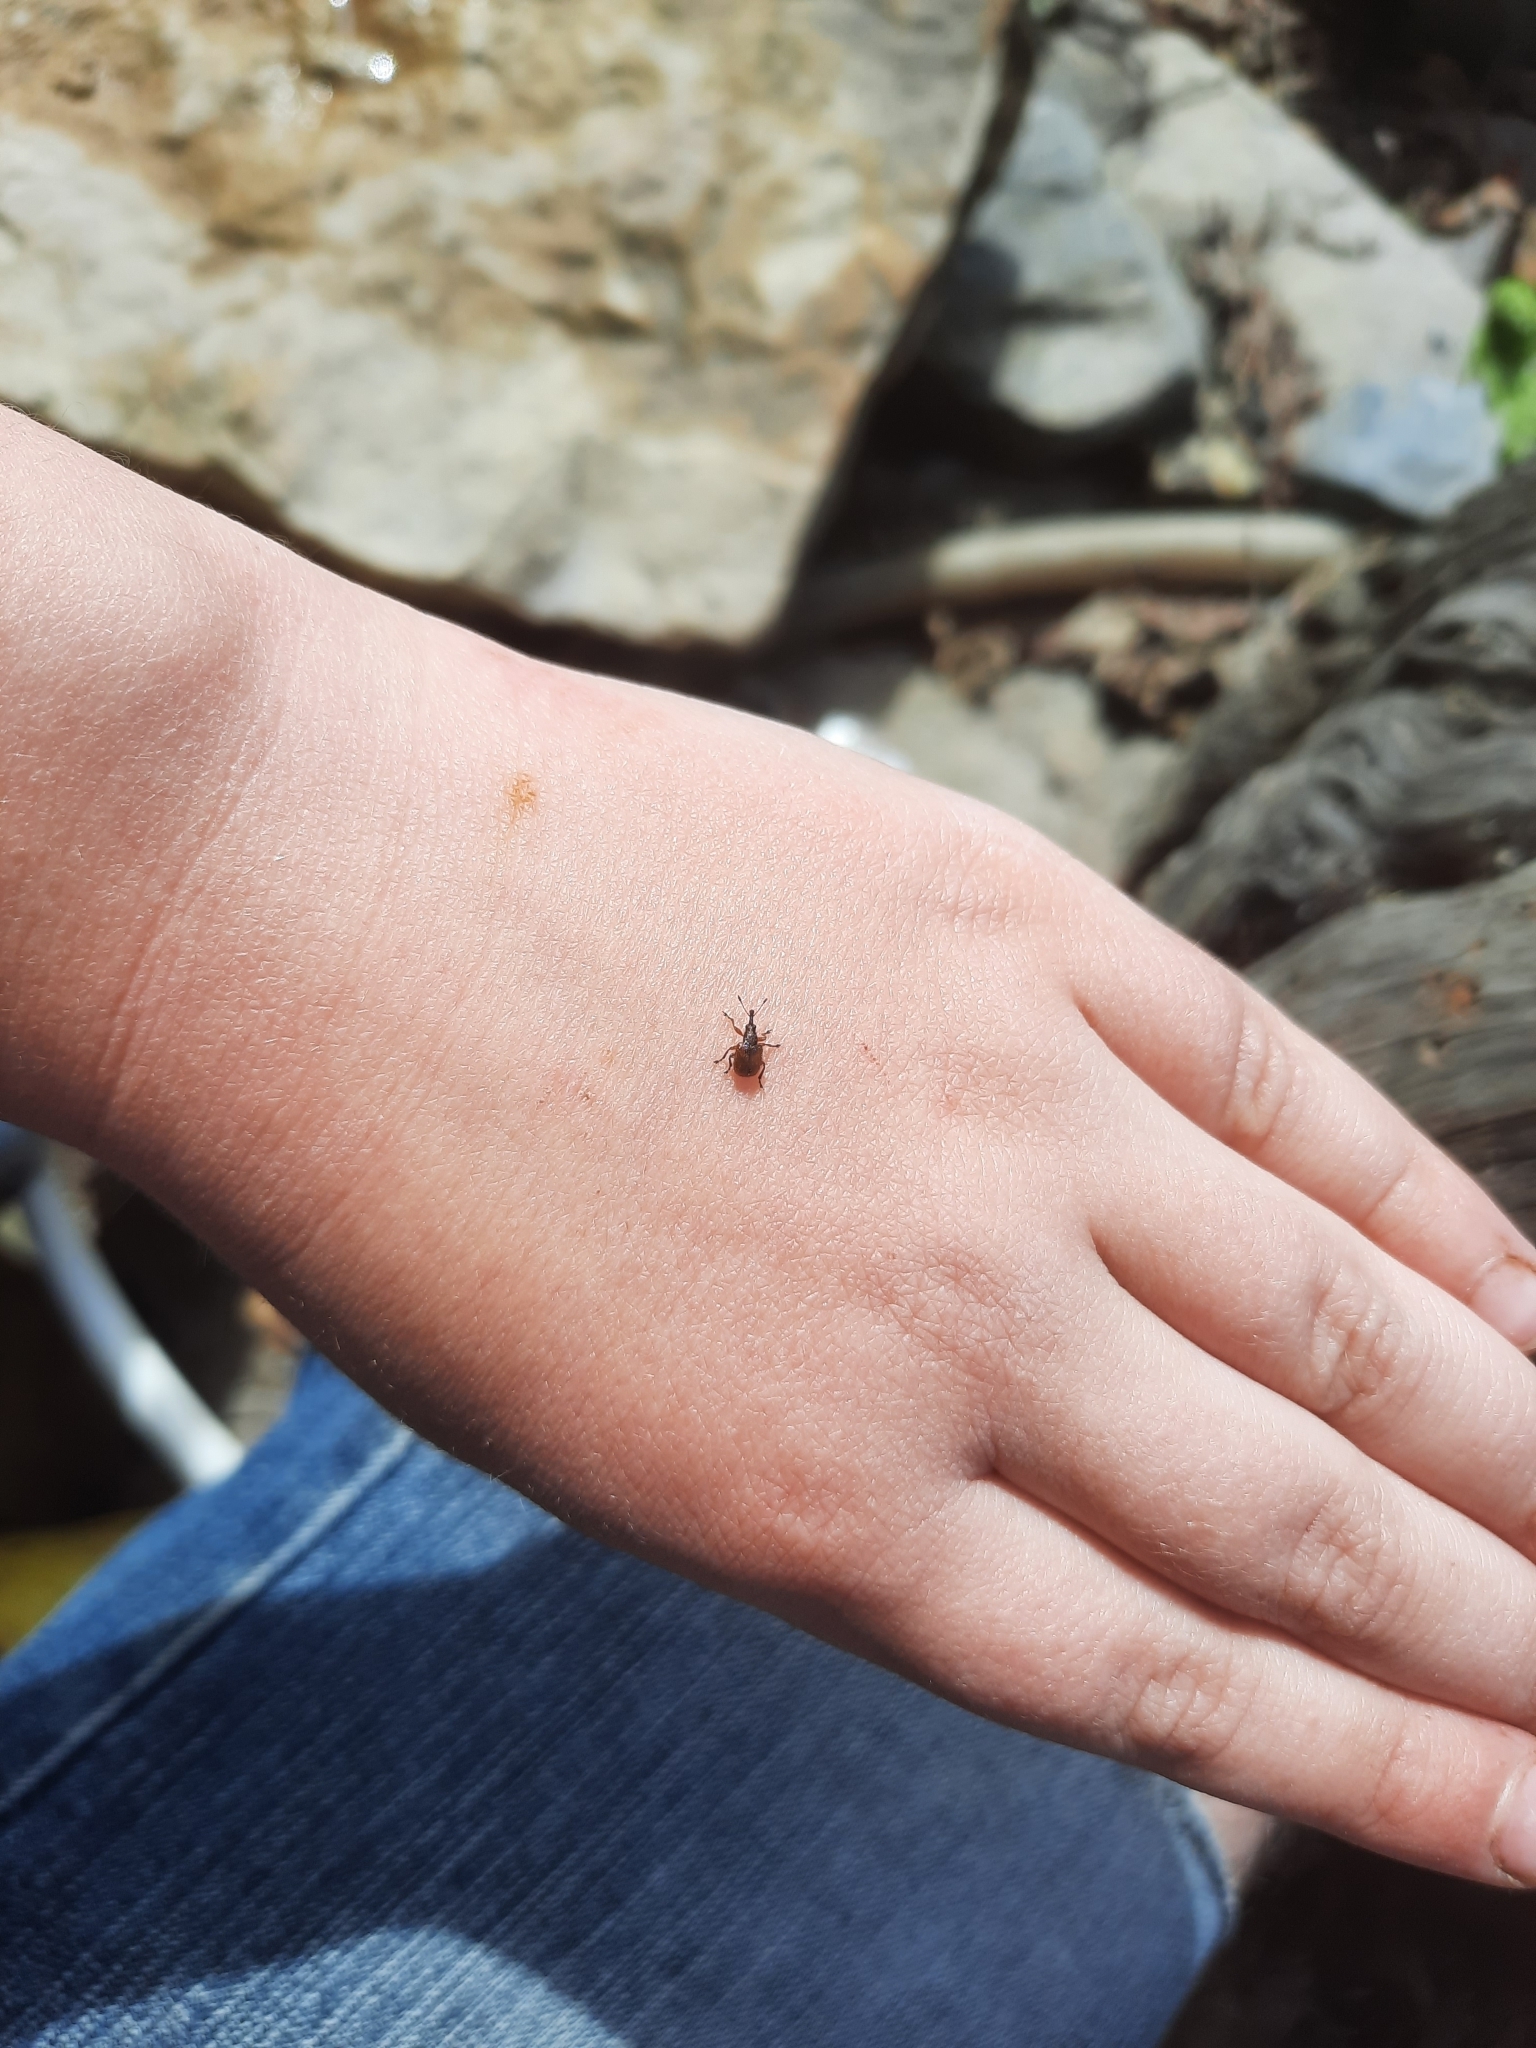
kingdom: Animalia
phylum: Arthropoda
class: Insecta
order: Coleoptera
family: Rhynchitidae
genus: Tatianaerhynchites
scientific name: Tatianaerhynchites aequatus
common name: Apple fruit rhynchites
